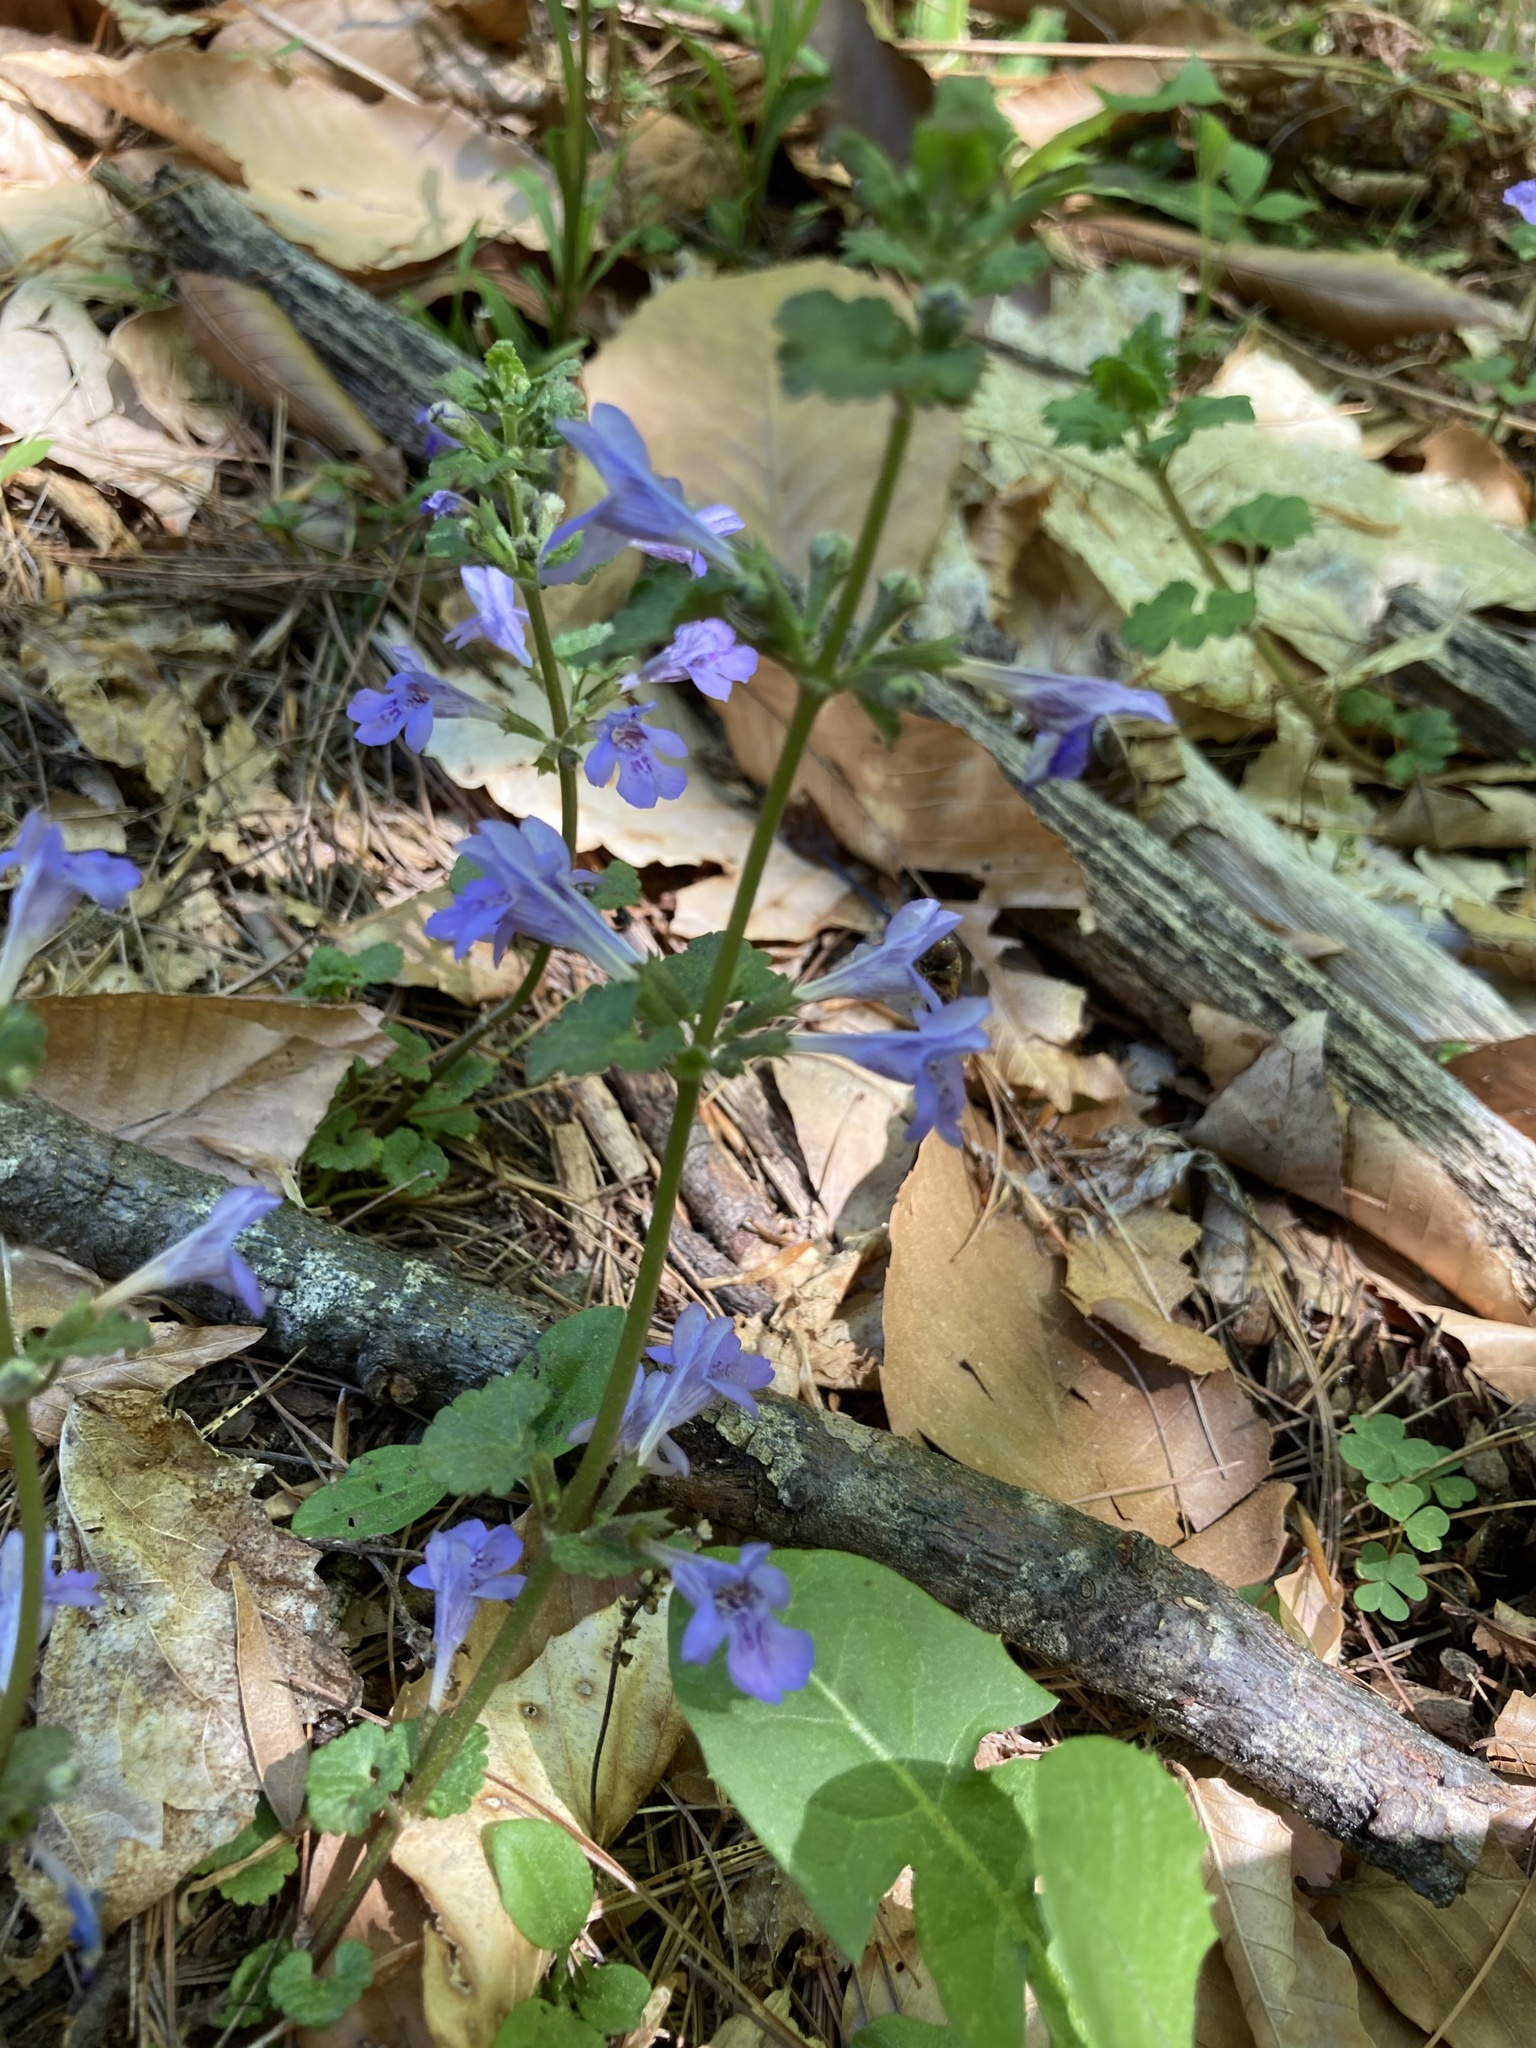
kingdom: Plantae
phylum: Tracheophyta
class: Magnoliopsida
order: Lamiales
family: Lamiaceae
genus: Glechoma
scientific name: Glechoma hederacea
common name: Ground ivy
